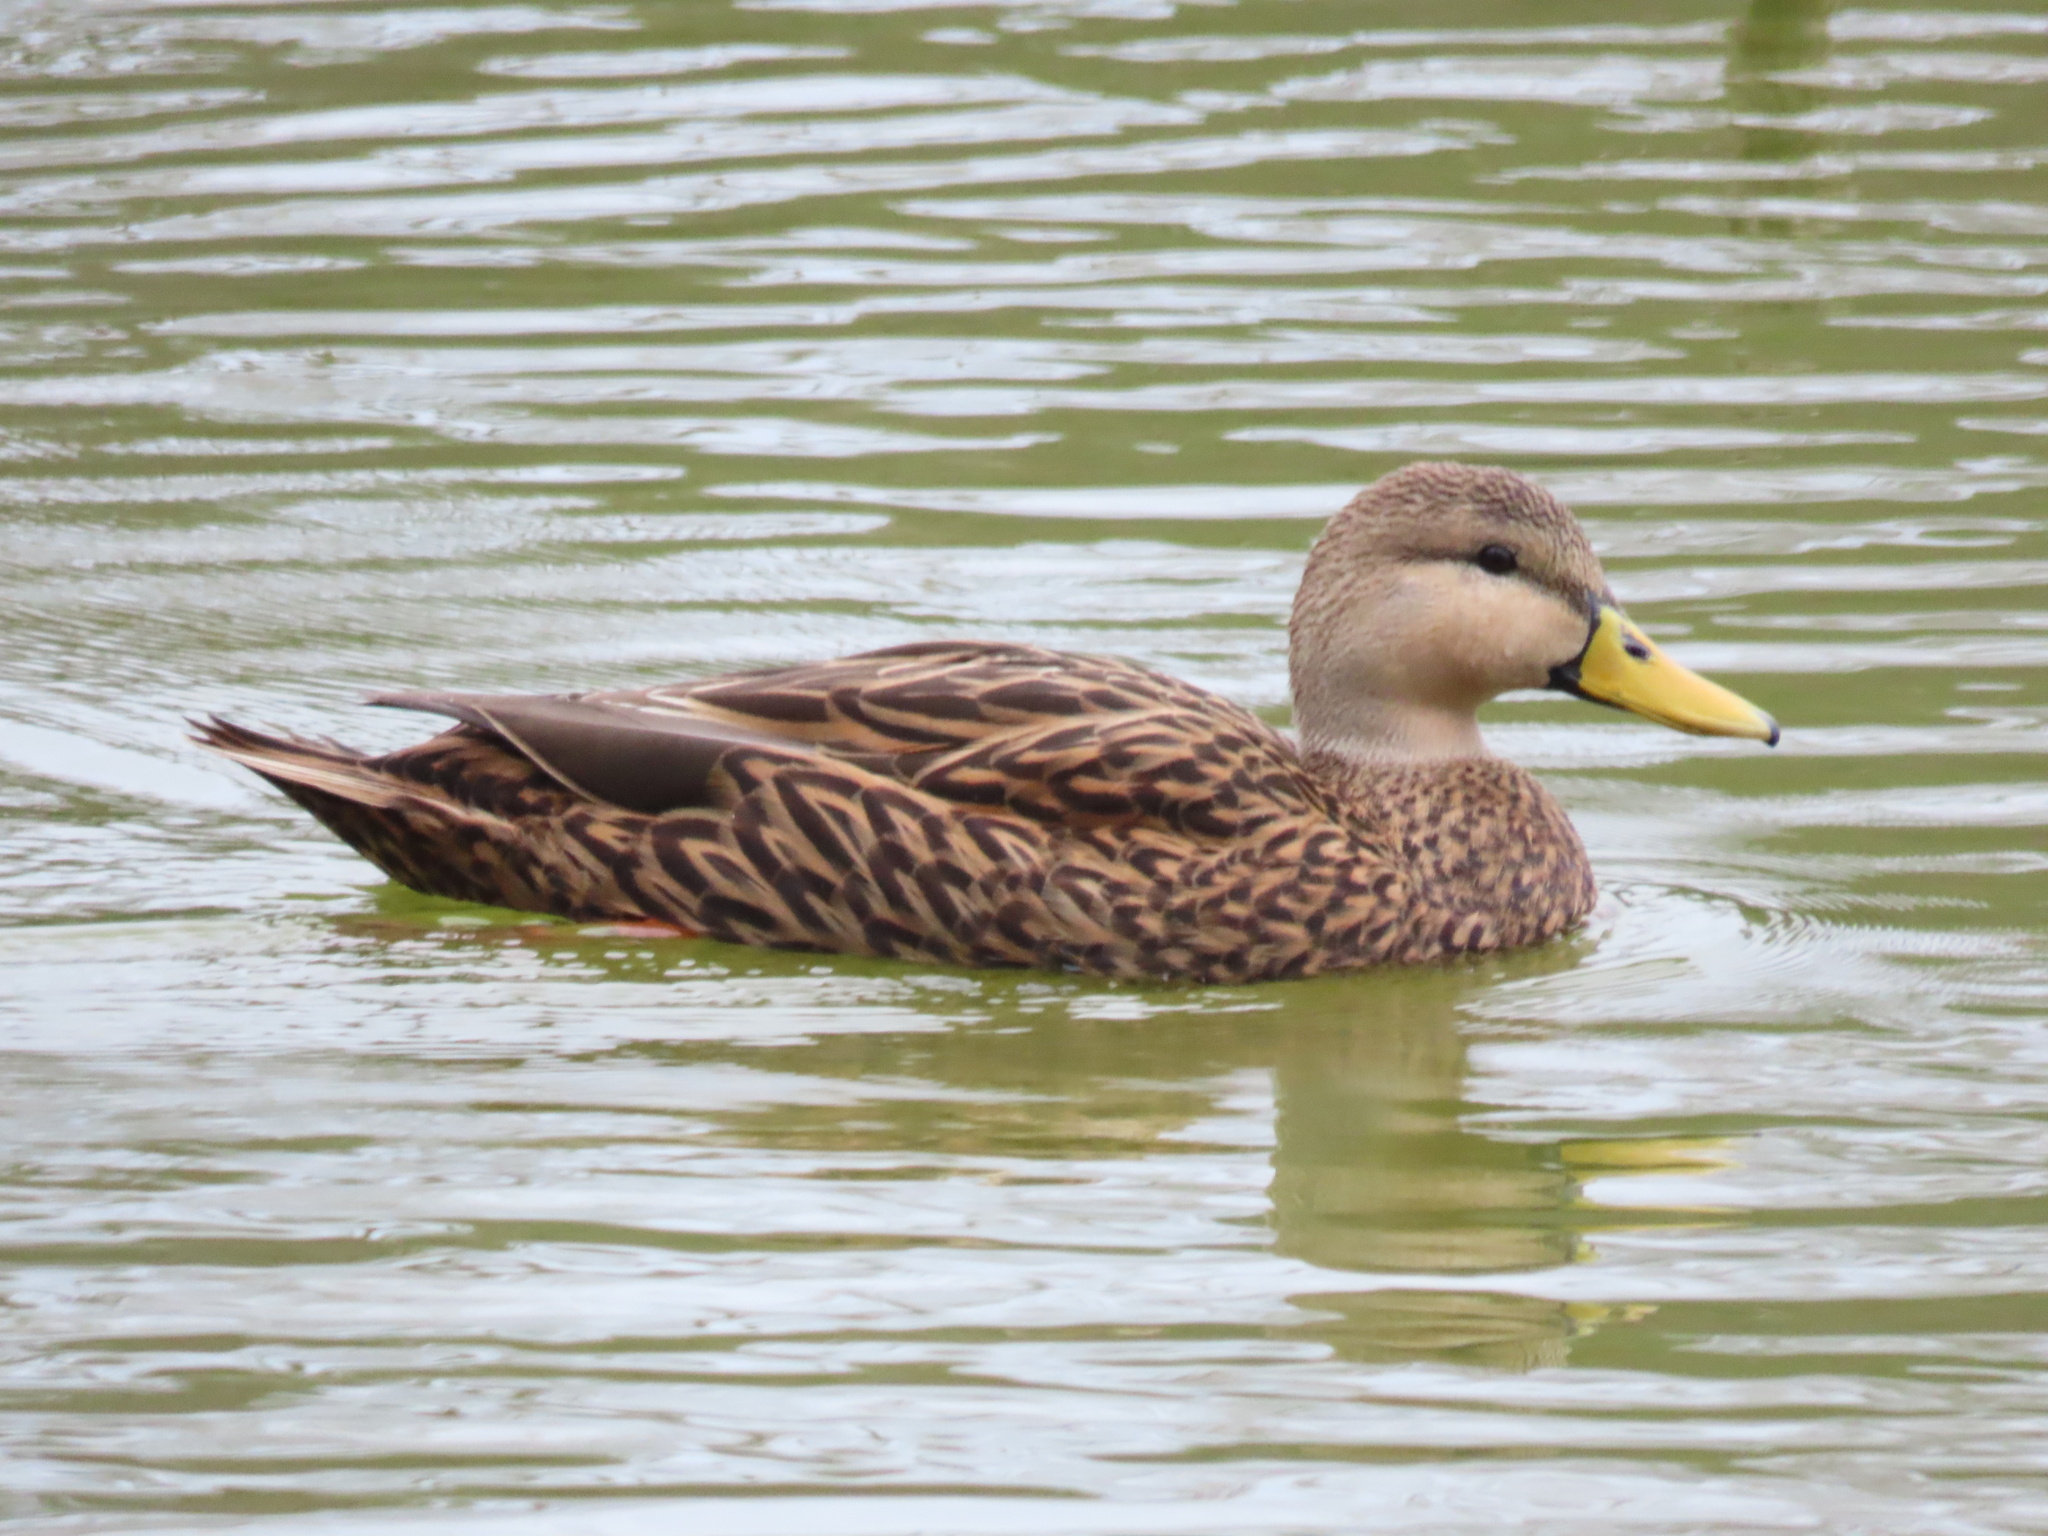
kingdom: Animalia
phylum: Chordata
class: Aves
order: Anseriformes
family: Anatidae
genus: Anas
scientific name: Anas fulvigula
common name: Mottled duck
